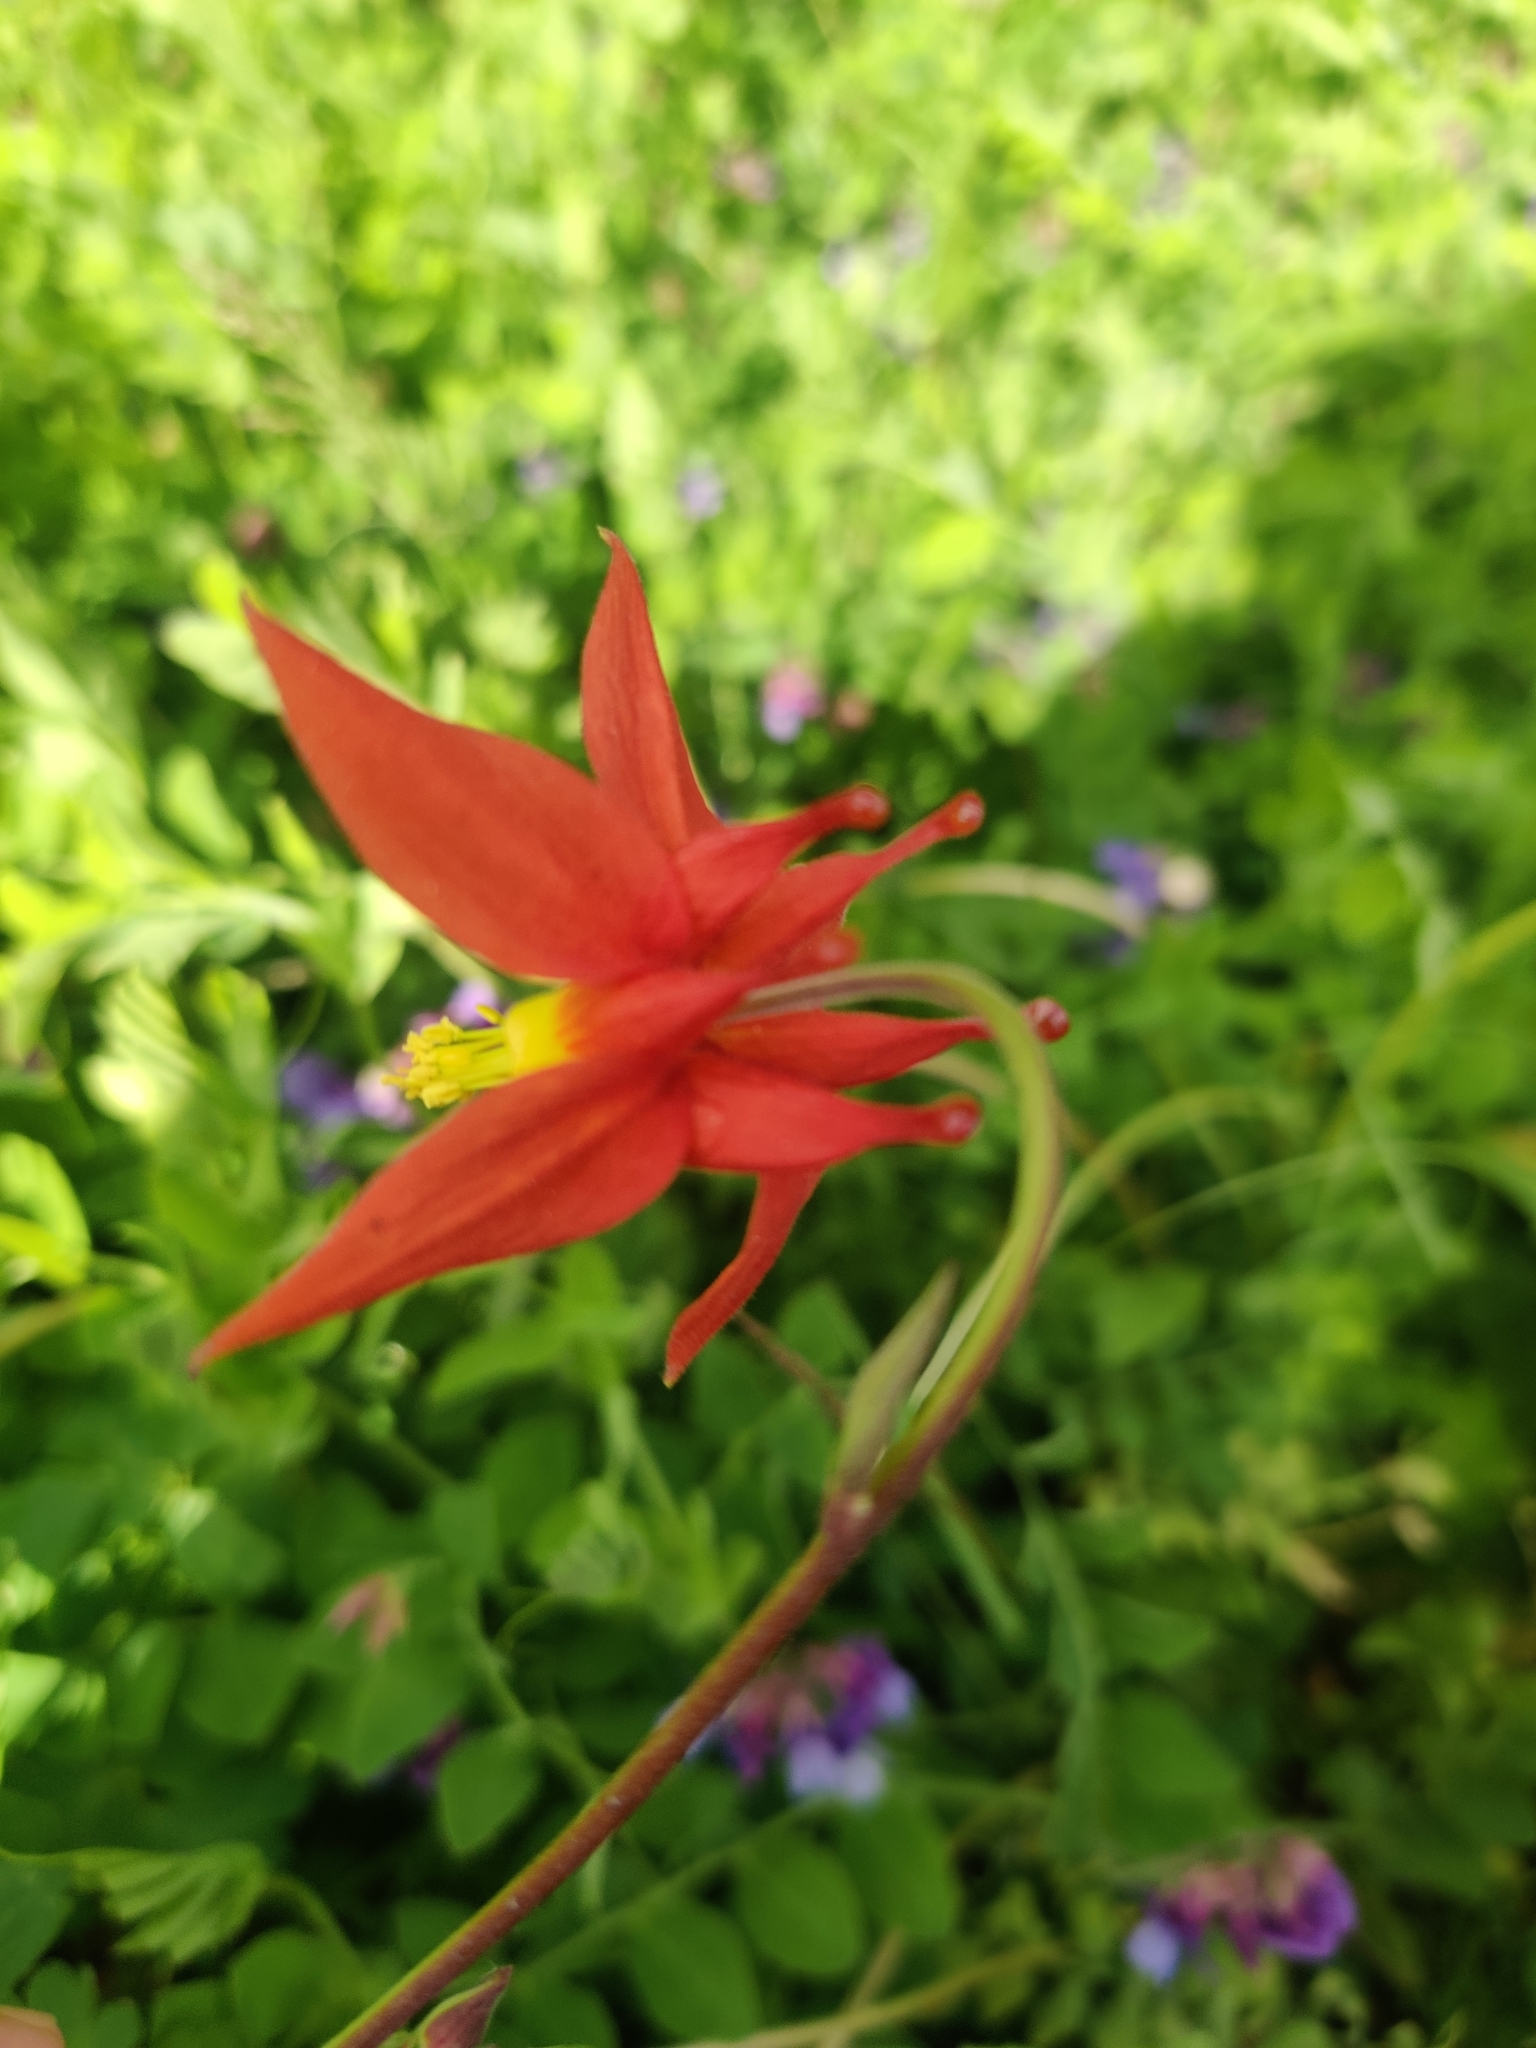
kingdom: Plantae
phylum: Tracheophyta
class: Magnoliopsida
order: Ranunculales
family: Ranunculaceae
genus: Aquilegia
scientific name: Aquilegia formosa
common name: Sitka columbine
